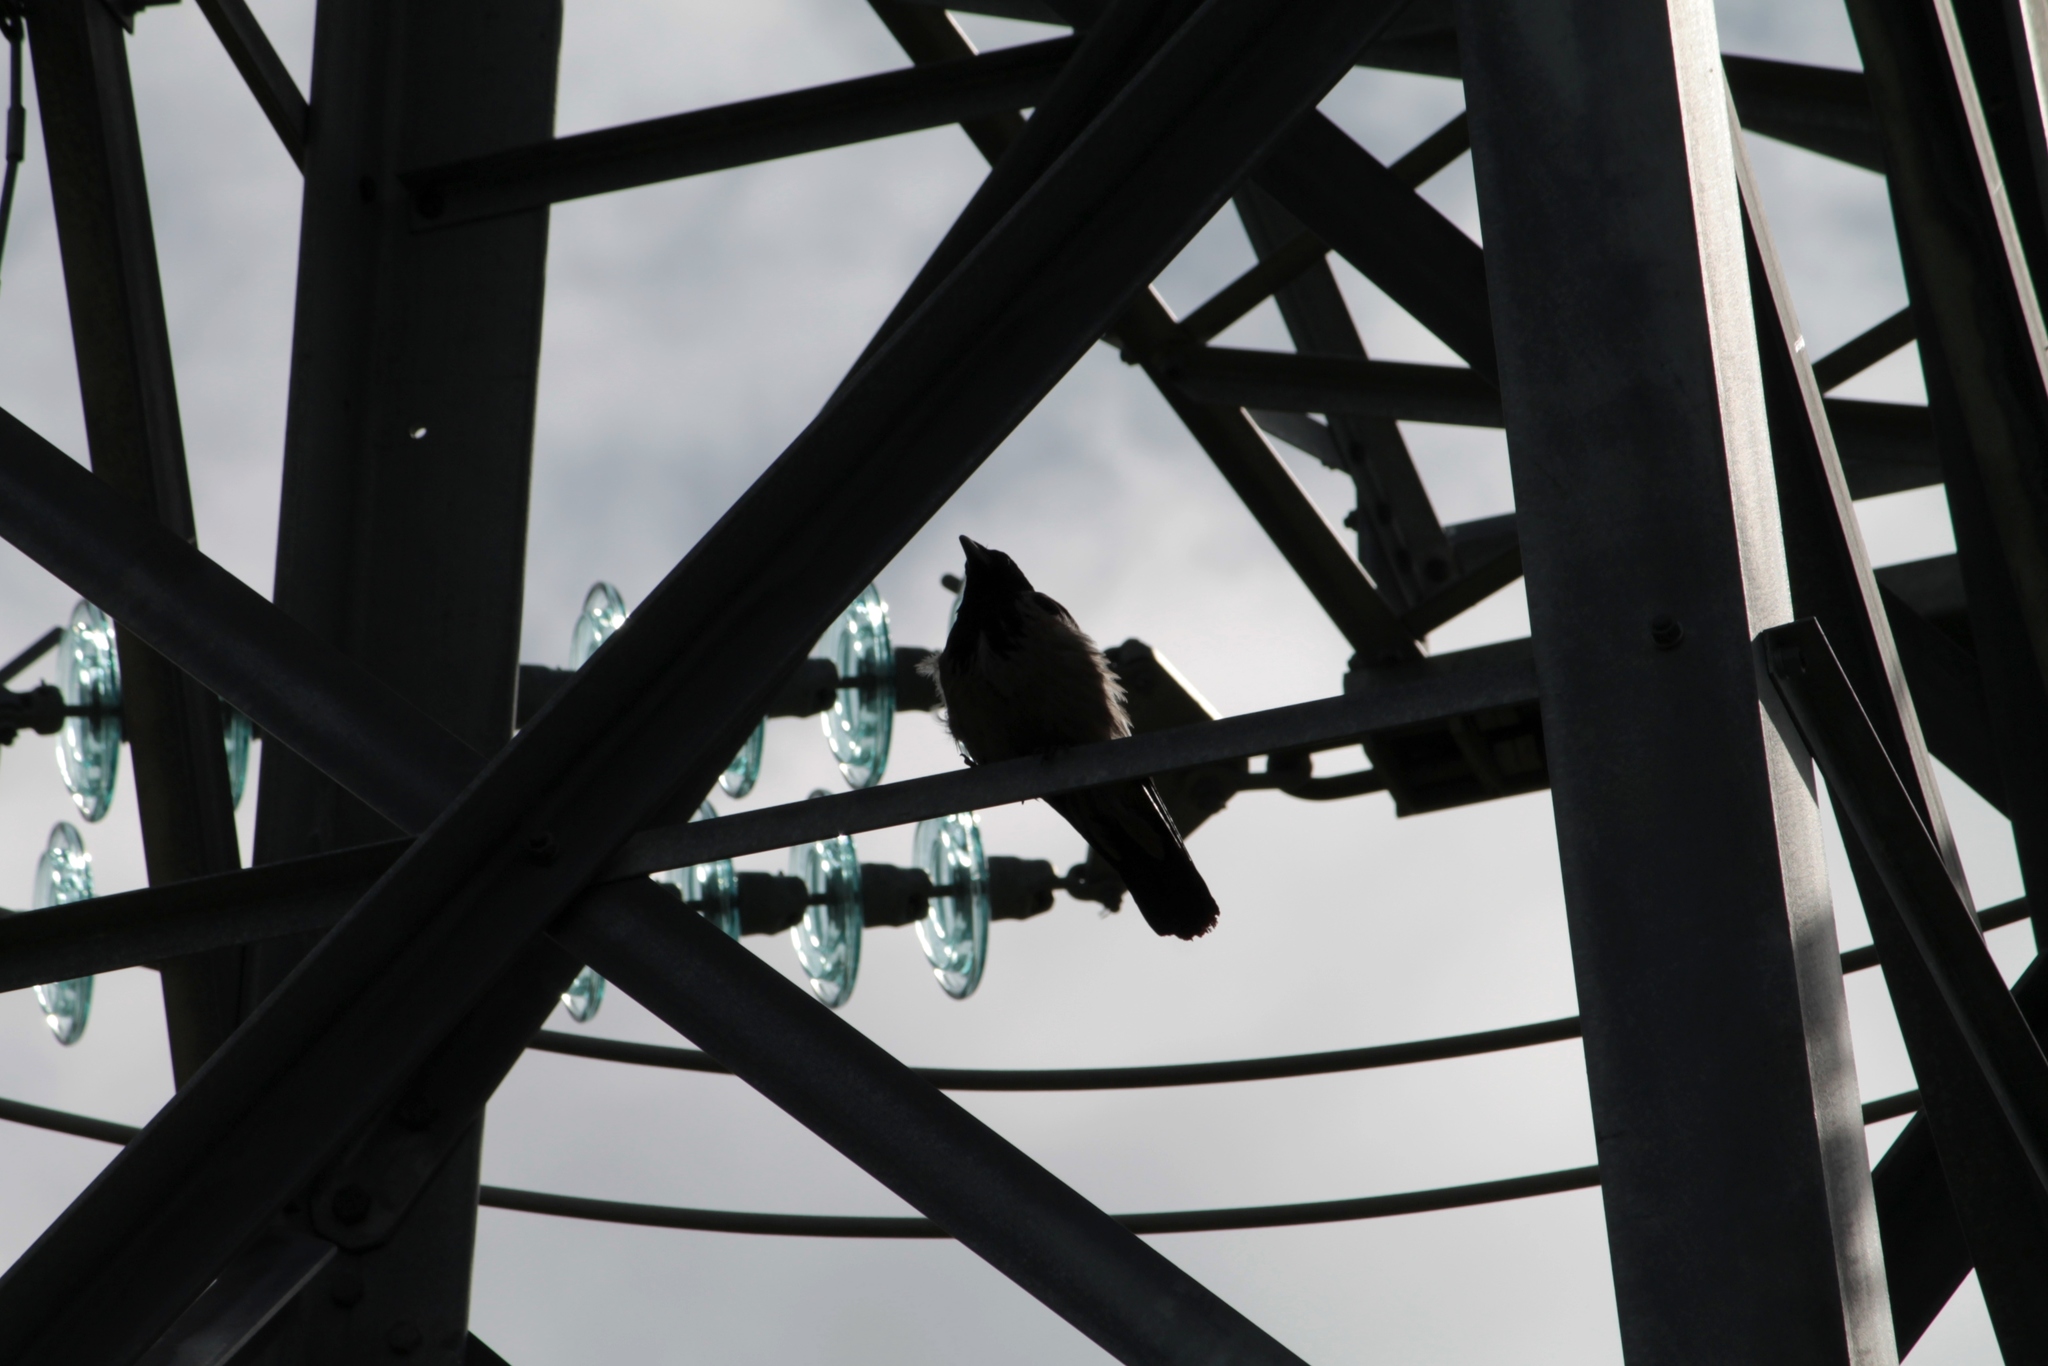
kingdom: Animalia
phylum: Chordata
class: Aves
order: Passeriformes
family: Corvidae
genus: Corvus
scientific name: Corvus cornix
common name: Hooded crow
